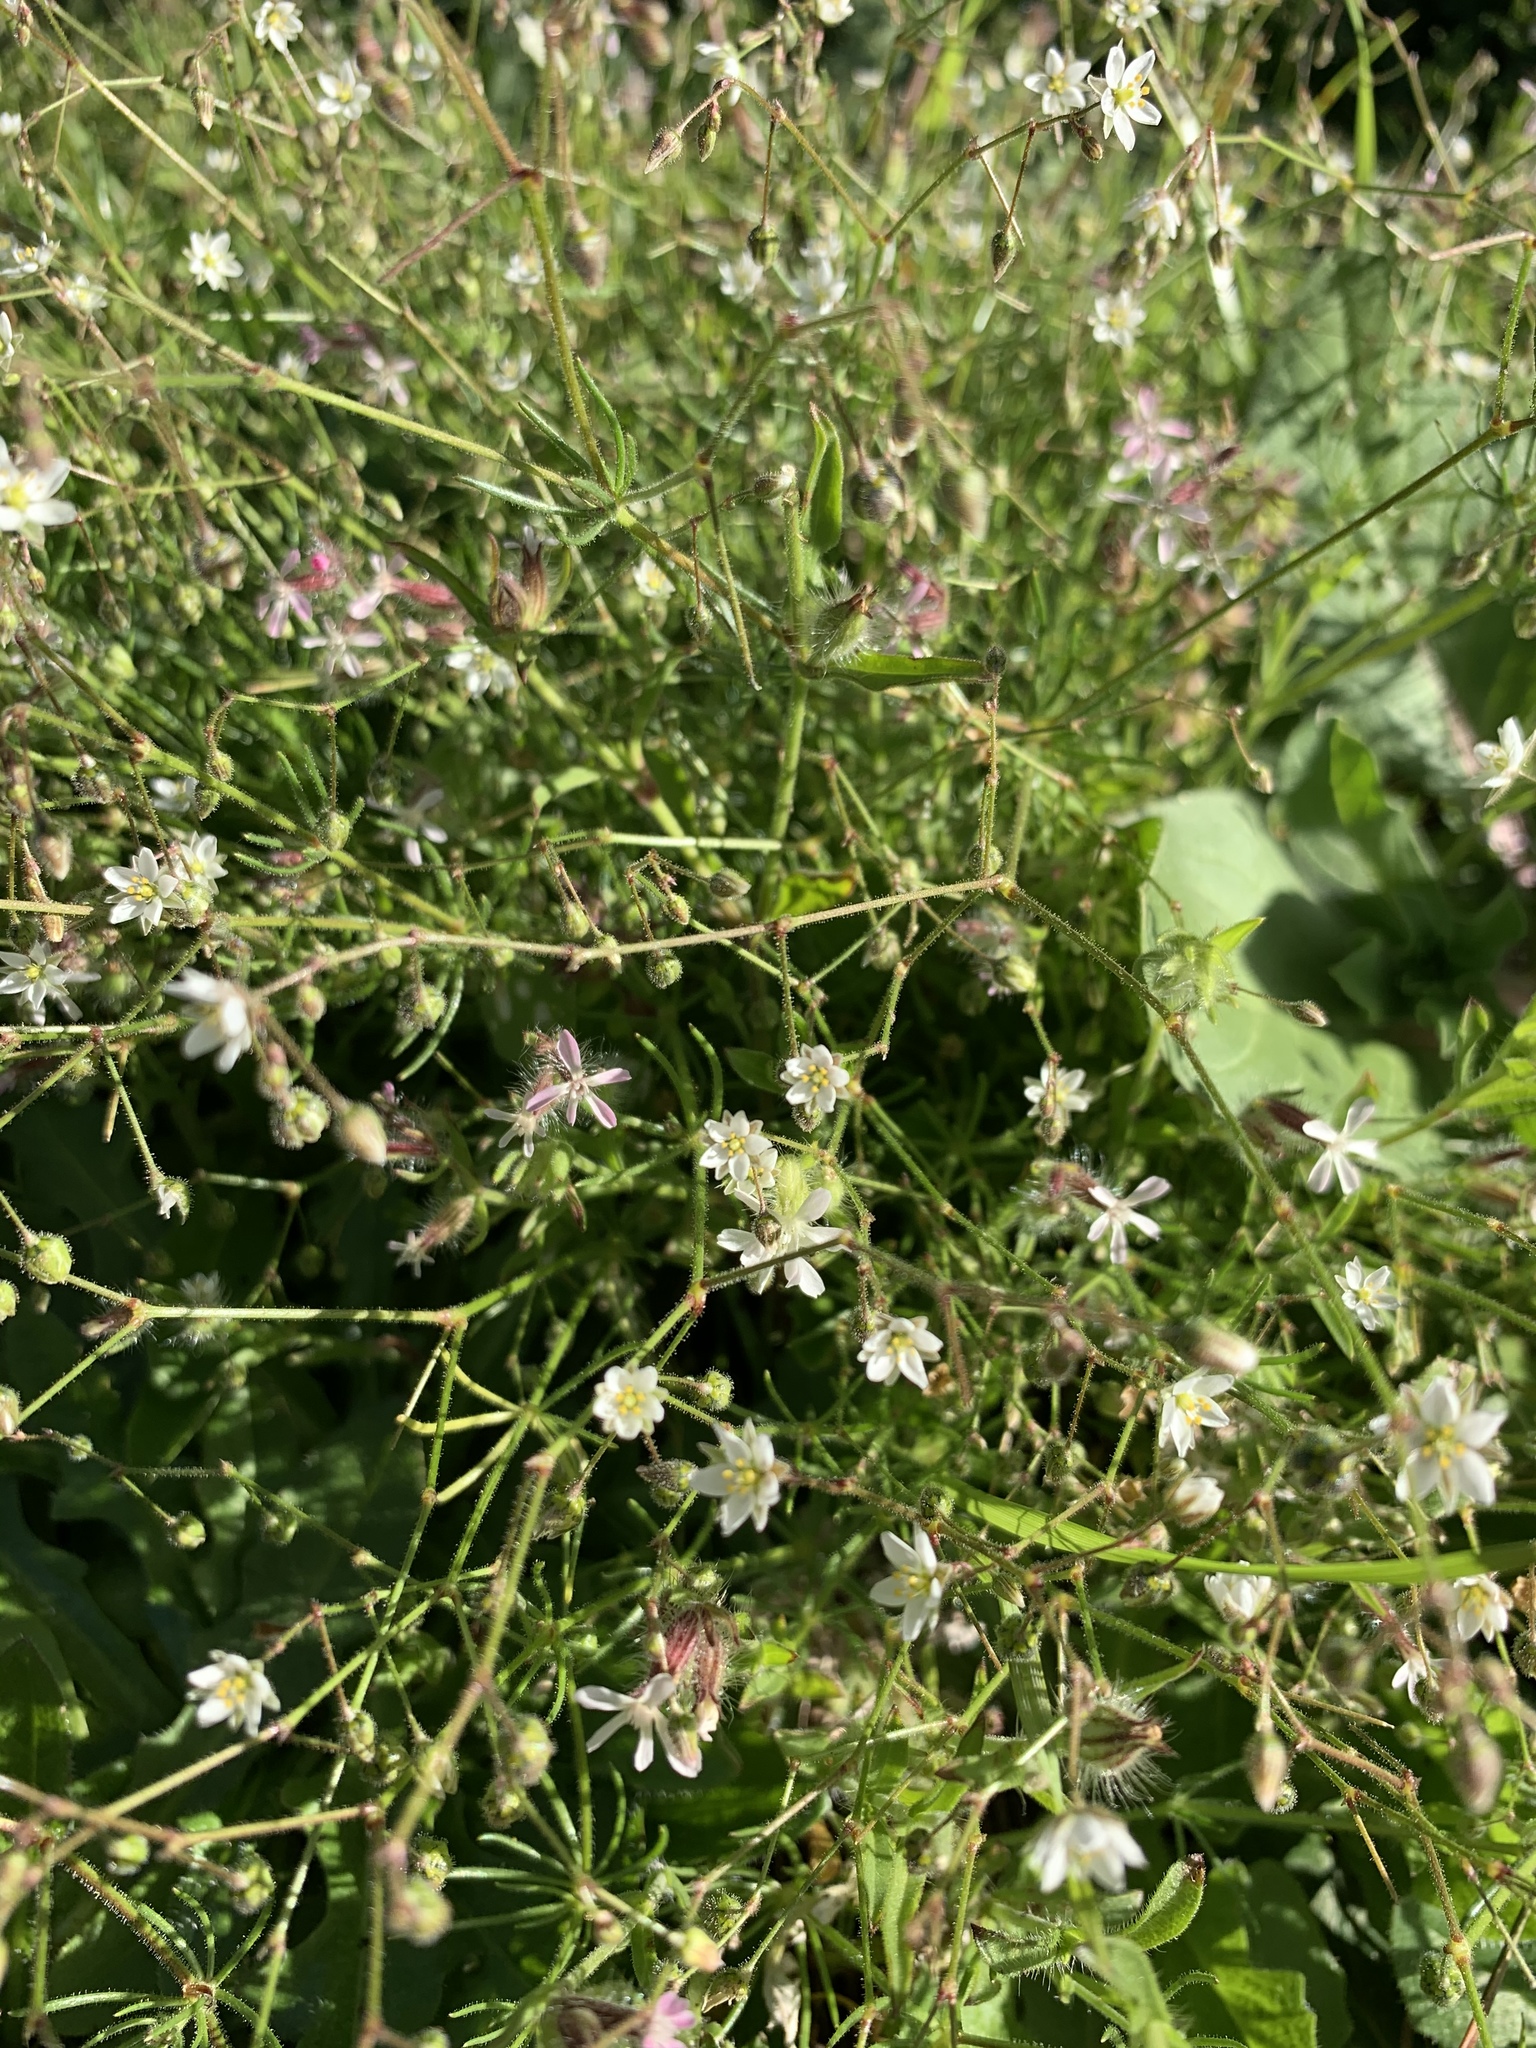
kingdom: Plantae
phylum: Tracheophyta
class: Magnoliopsida
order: Caryophyllales
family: Caryophyllaceae
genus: Spergula
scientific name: Spergula arvensis
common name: Corn spurrey
